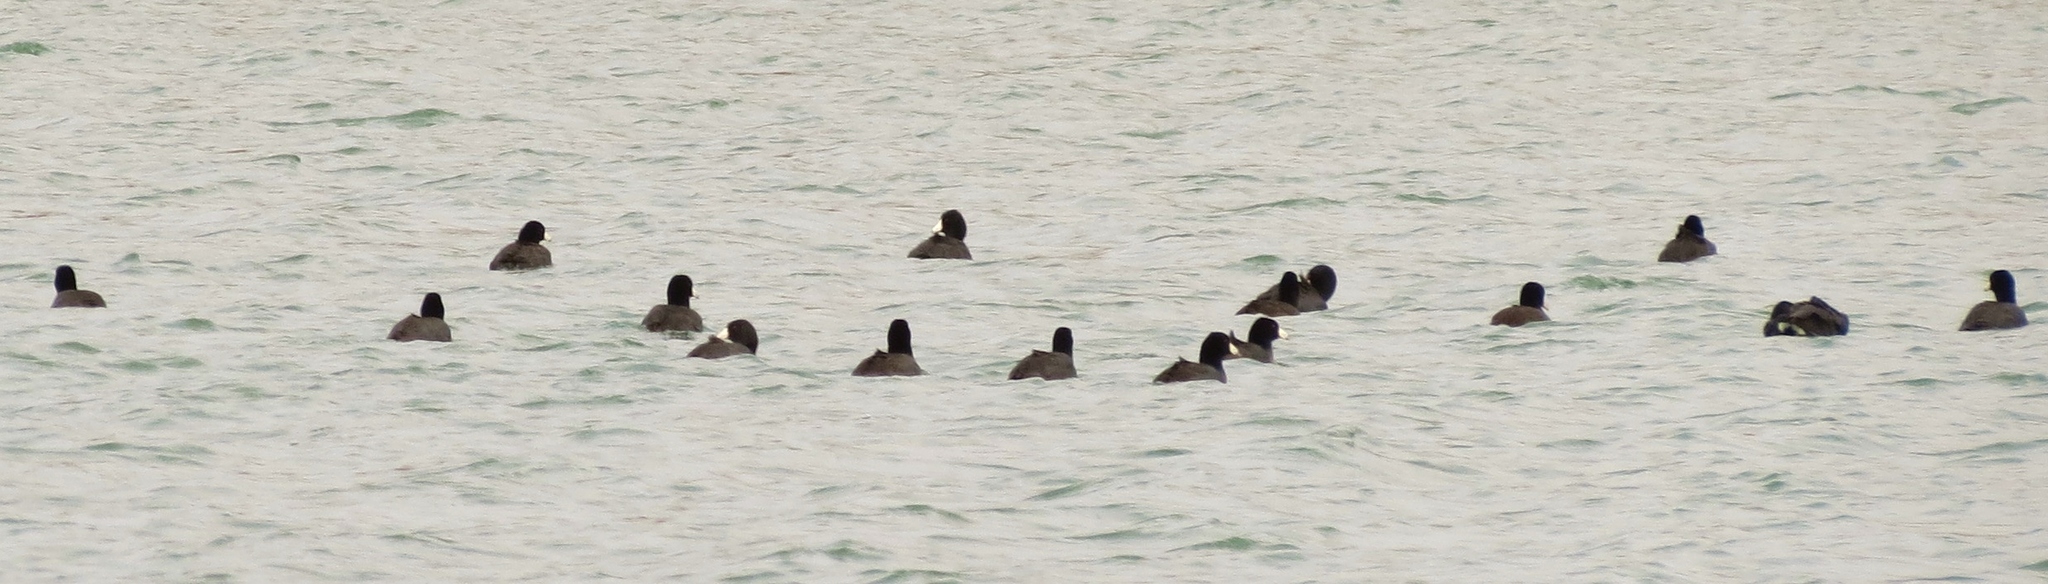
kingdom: Animalia
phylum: Chordata
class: Aves
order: Gruiformes
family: Rallidae
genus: Fulica
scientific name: Fulica americana
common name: American coot
